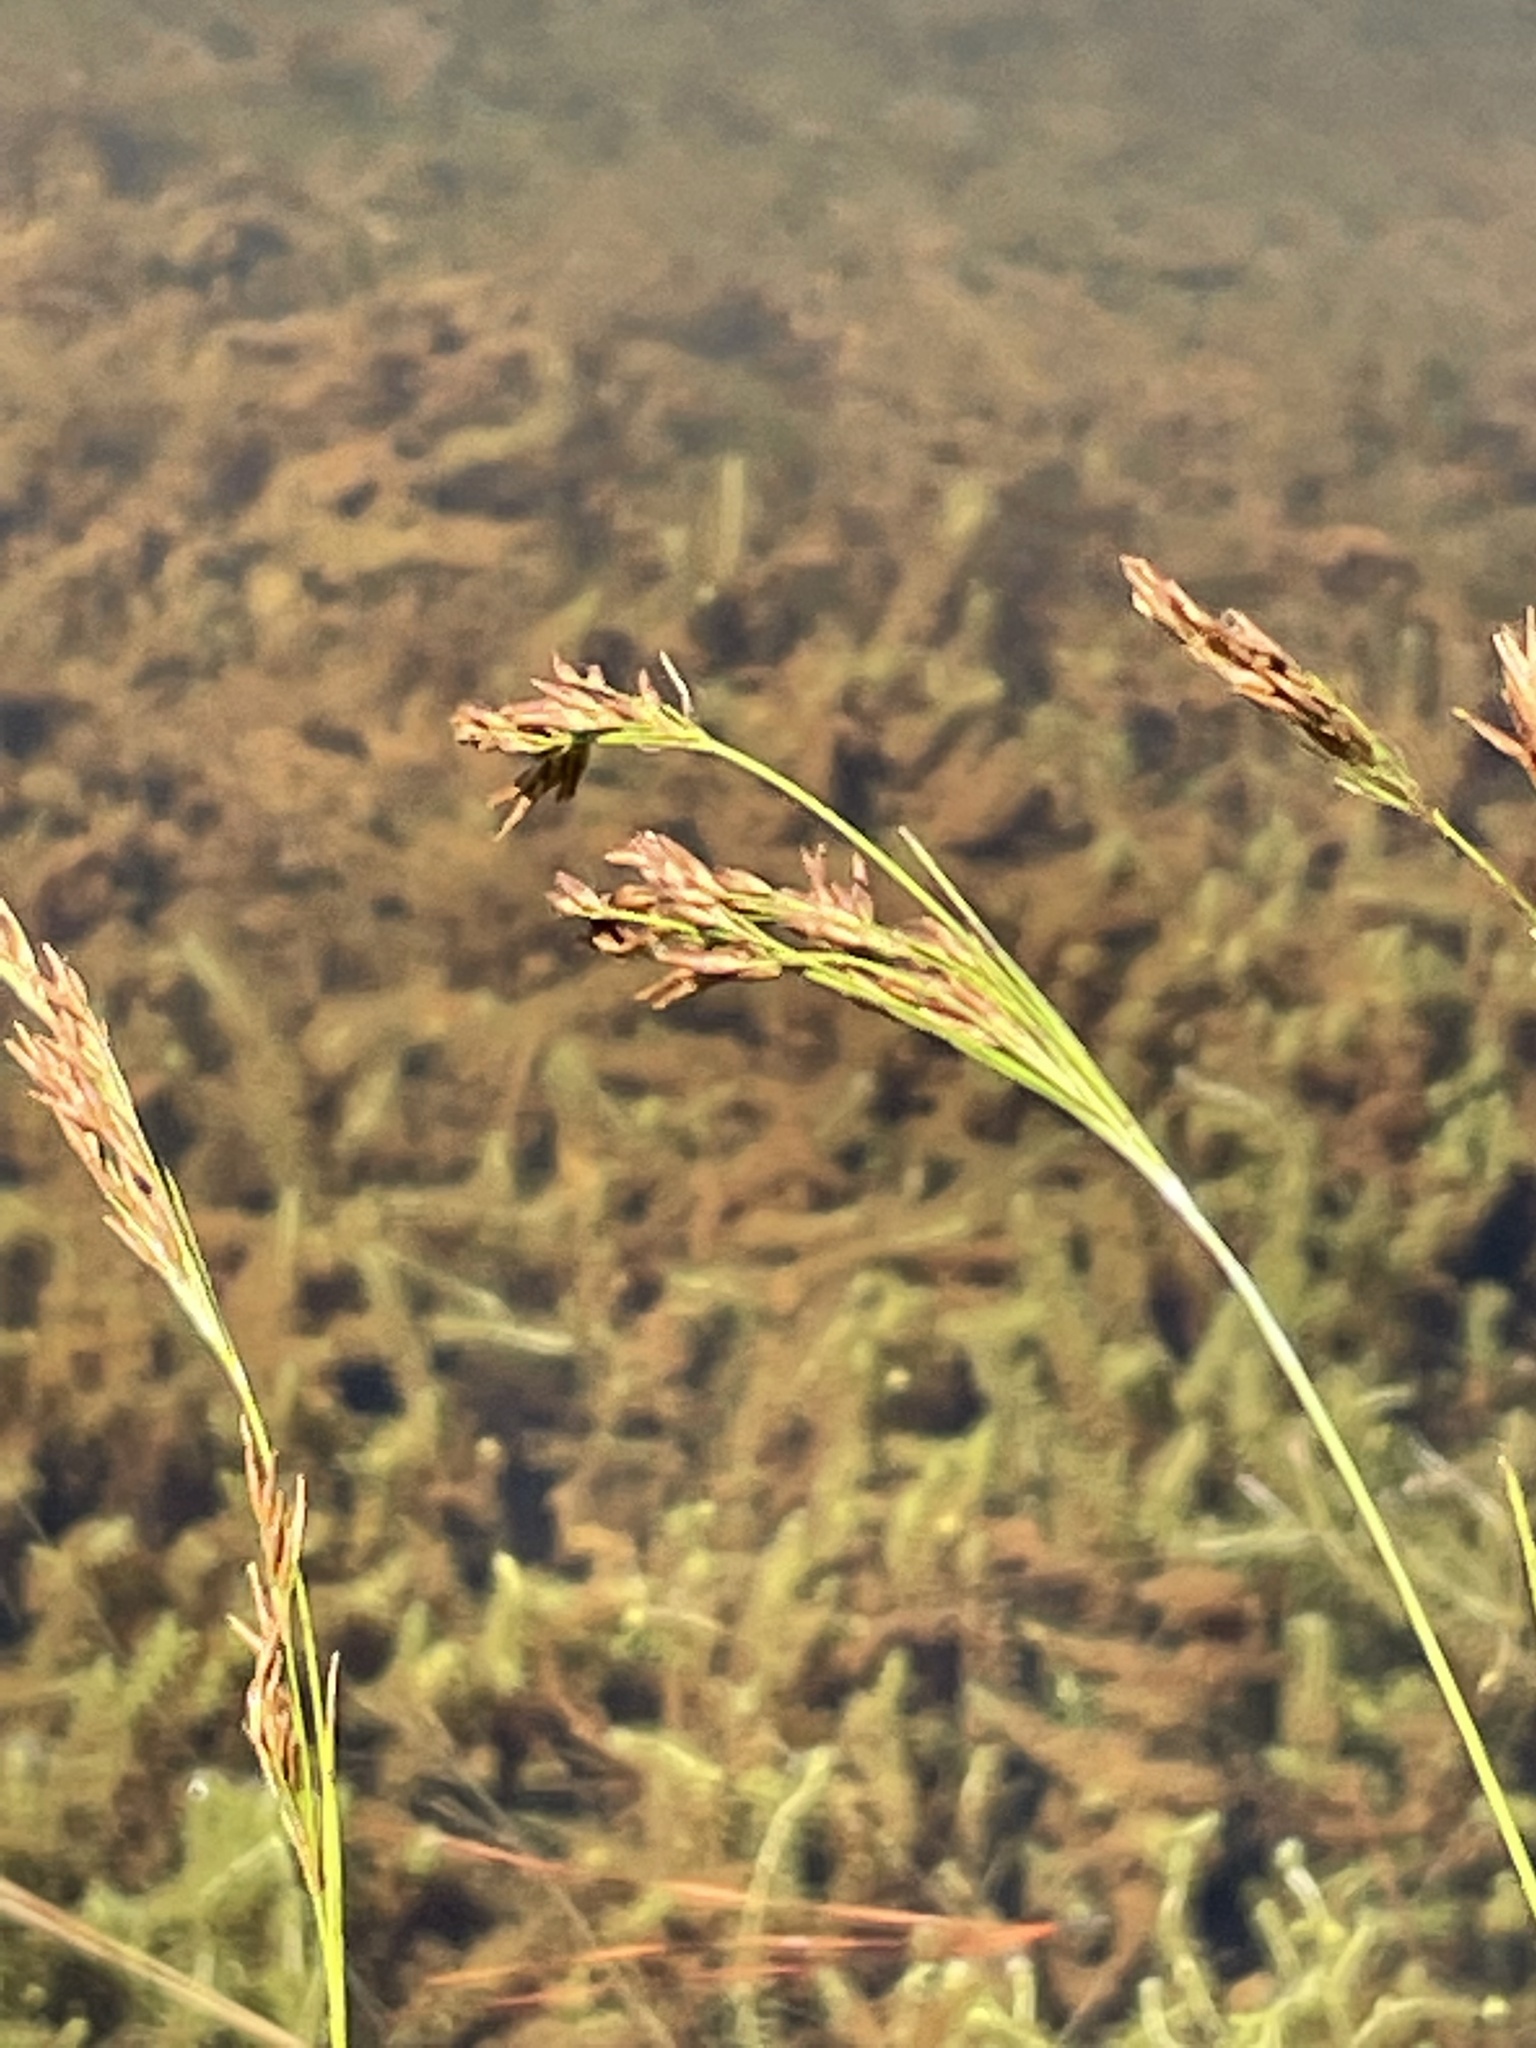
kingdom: Plantae
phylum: Tracheophyta
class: Liliopsida
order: Poales
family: Cyperaceae
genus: Rhynchospora
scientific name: Rhynchospora inexpansa
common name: Nodding beaksedge
